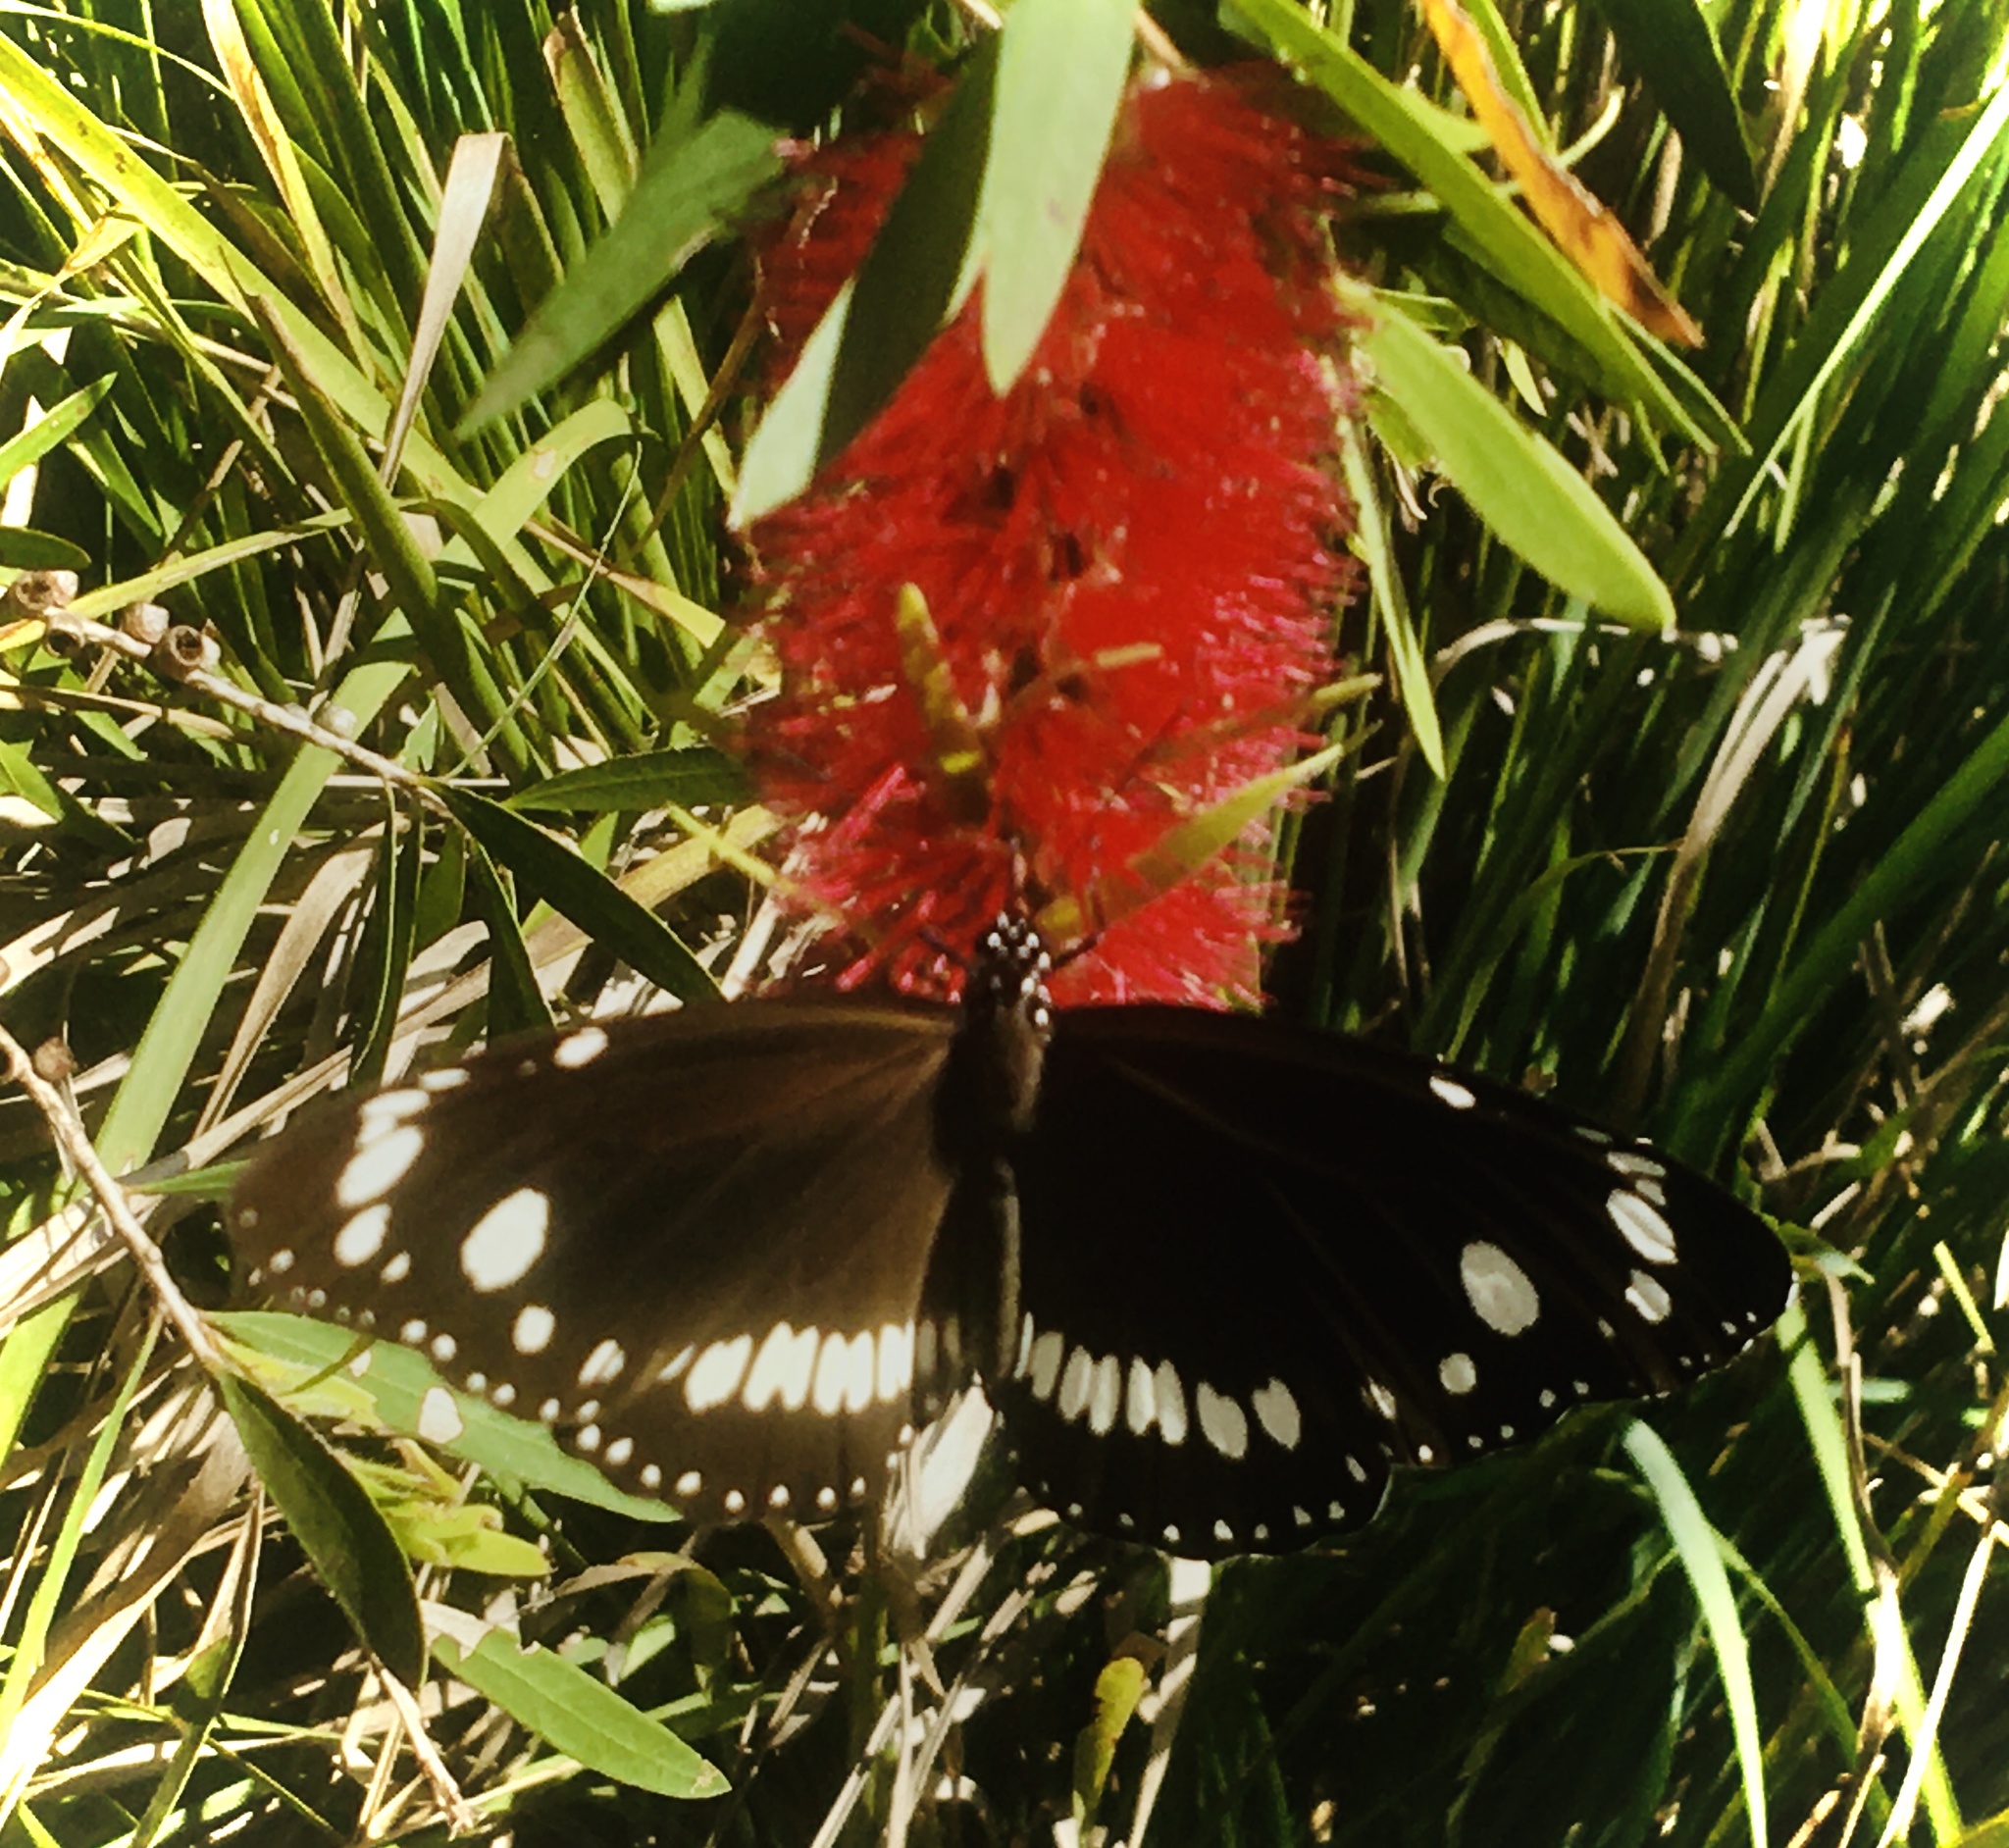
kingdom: Animalia
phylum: Arthropoda
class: Insecta
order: Lepidoptera
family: Nymphalidae
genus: Euploea
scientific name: Euploea core
